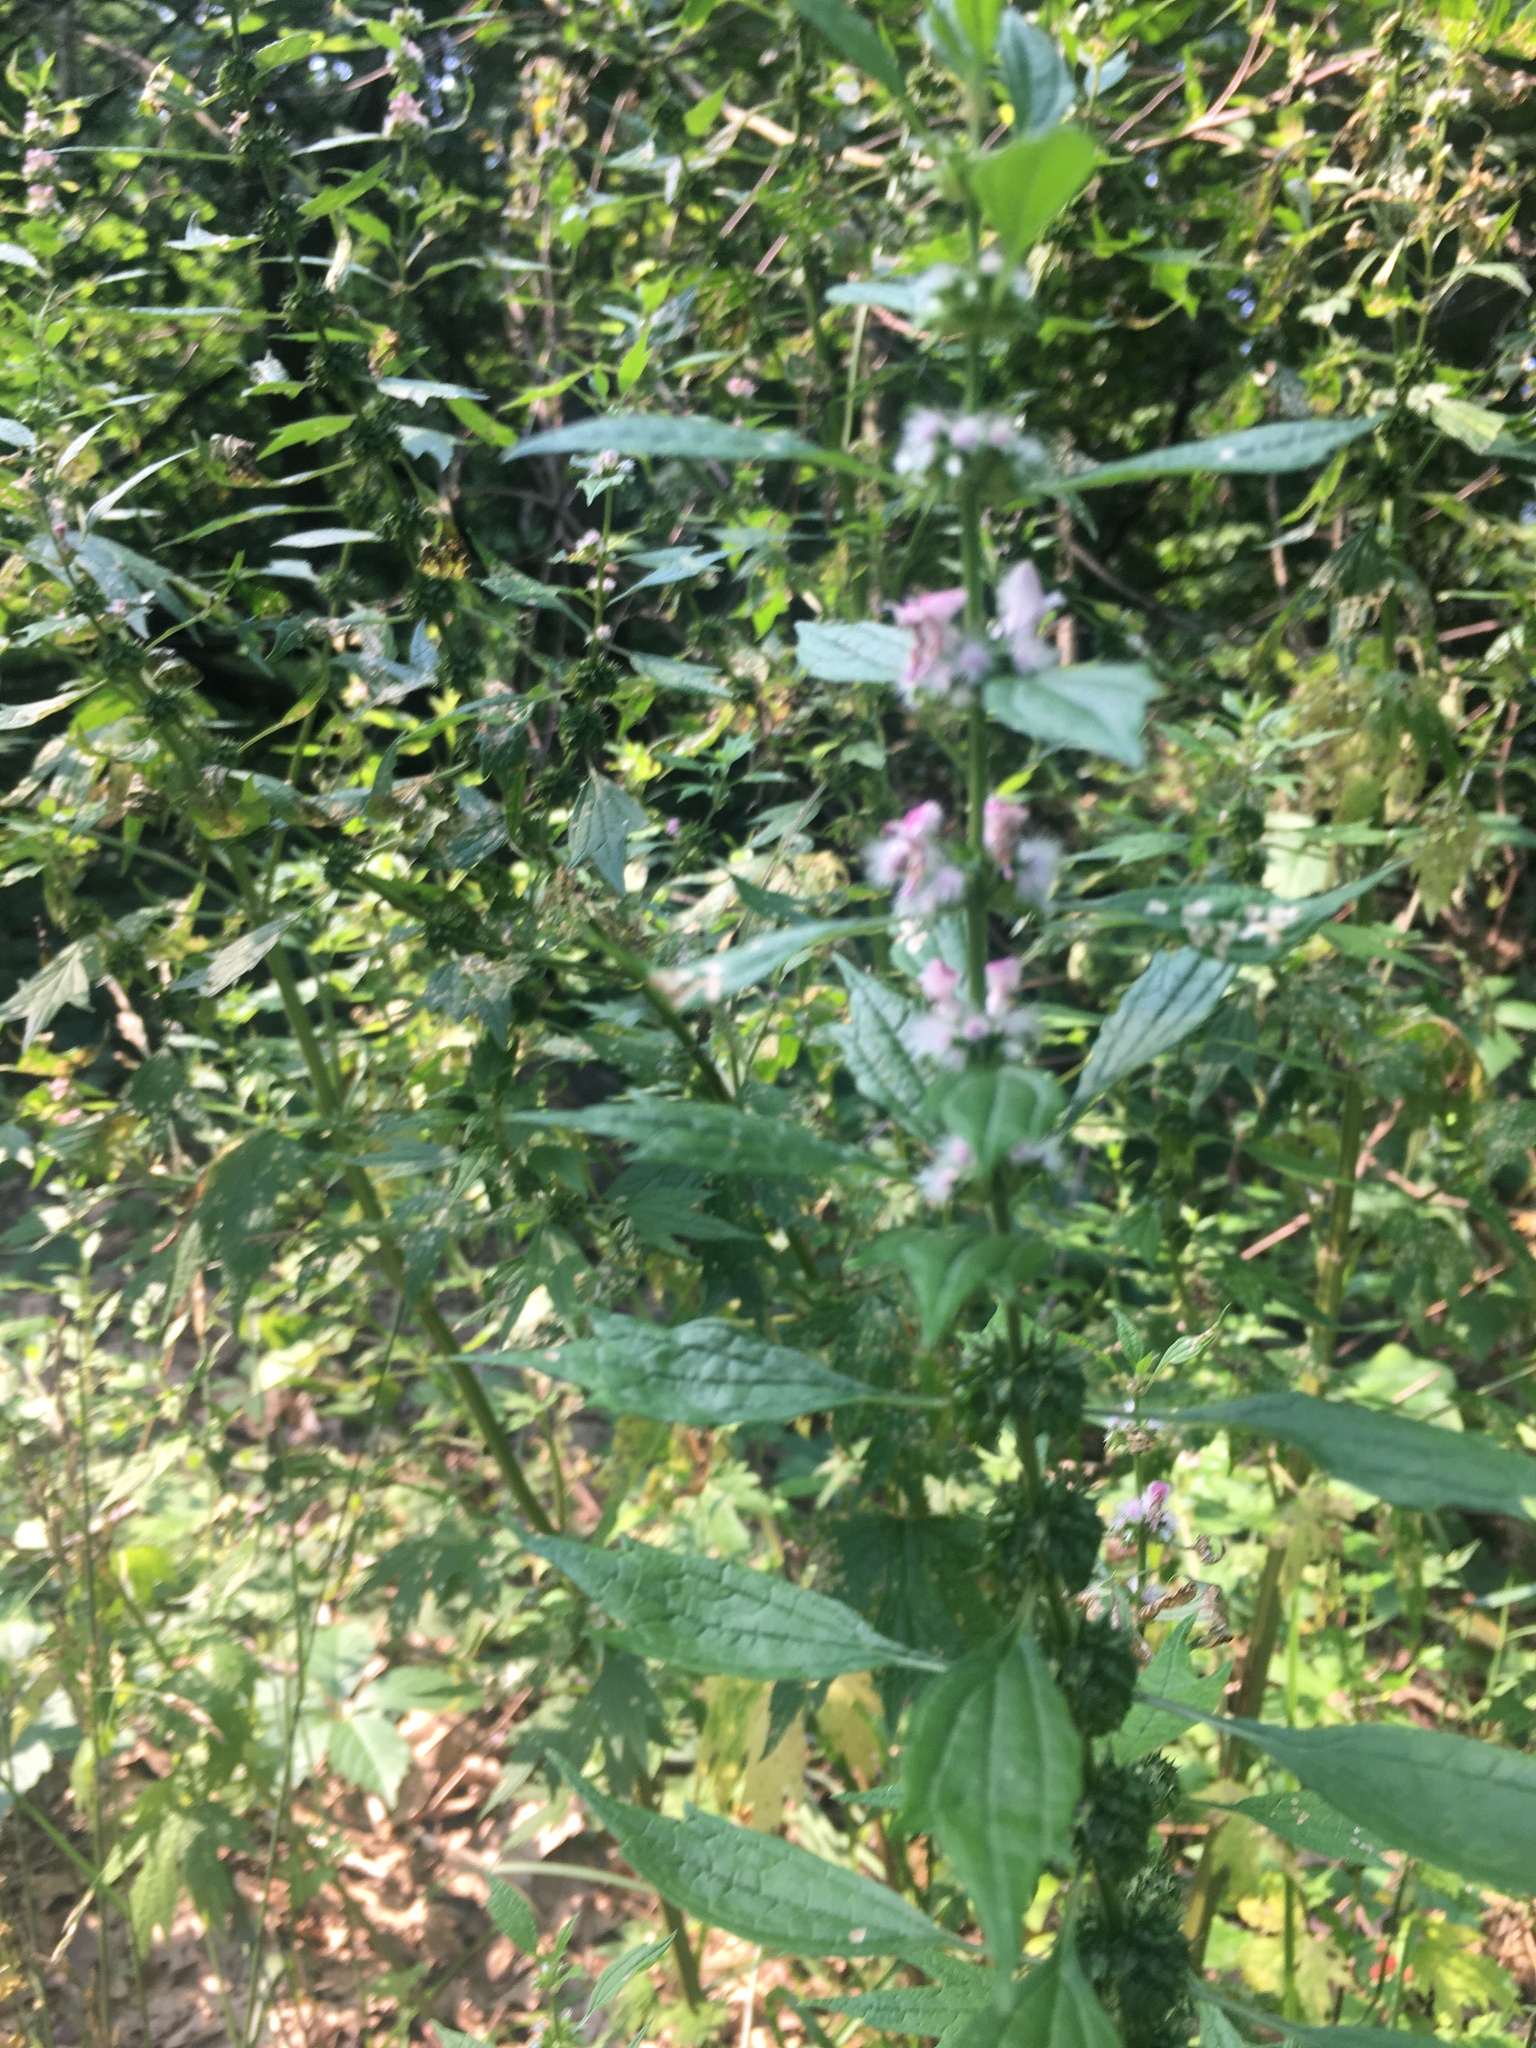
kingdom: Plantae
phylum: Tracheophyta
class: Magnoliopsida
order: Lamiales
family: Lamiaceae
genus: Leonurus
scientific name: Leonurus cardiaca
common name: Motherwort
